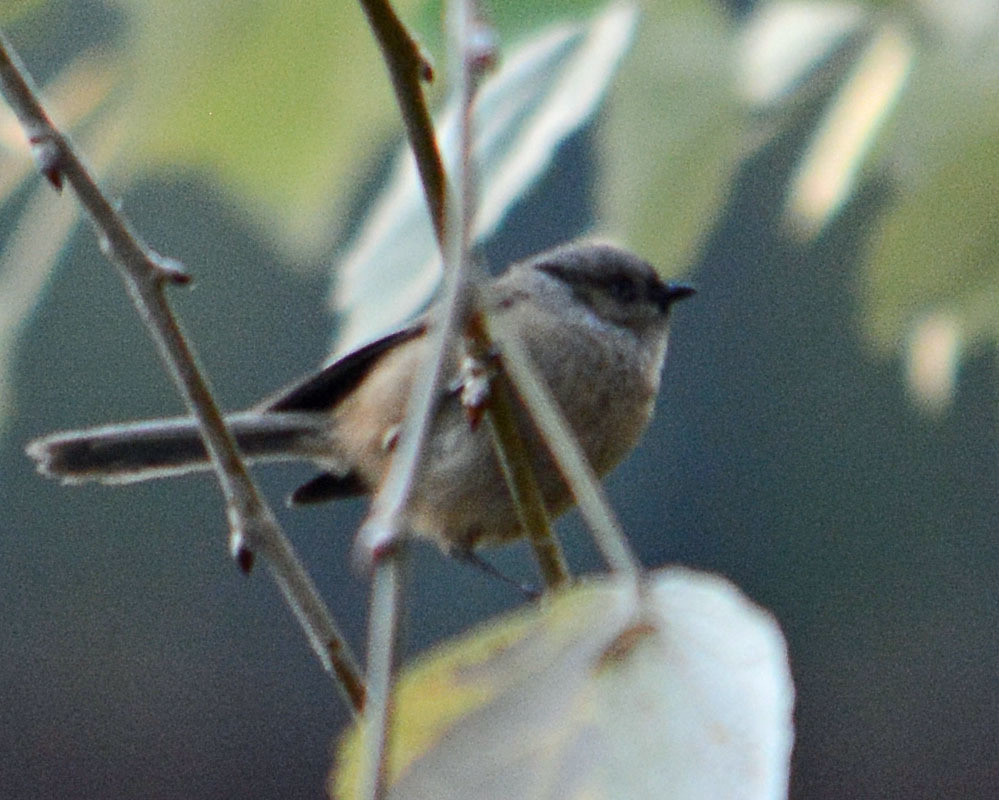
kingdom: Animalia
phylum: Chordata
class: Aves
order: Passeriformes
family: Aegithalidae
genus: Psaltriparus
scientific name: Psaltriparus minimus
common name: American bushtit
